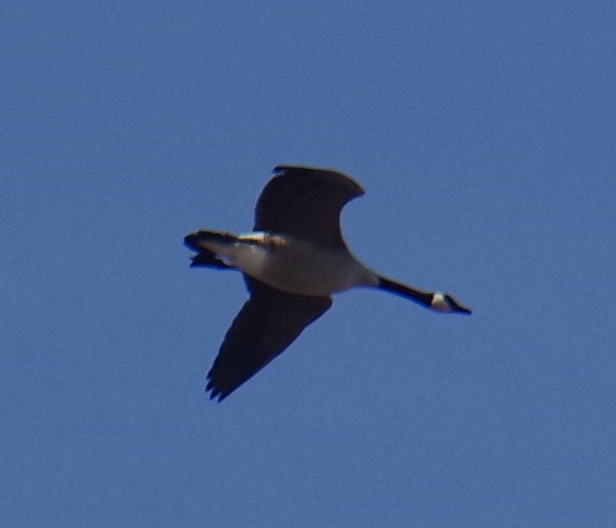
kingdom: Animalia
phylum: Chordata
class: Aves
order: Anseriformes
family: Anatidae
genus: Branta
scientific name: Branta canadensis
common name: Canada goose
